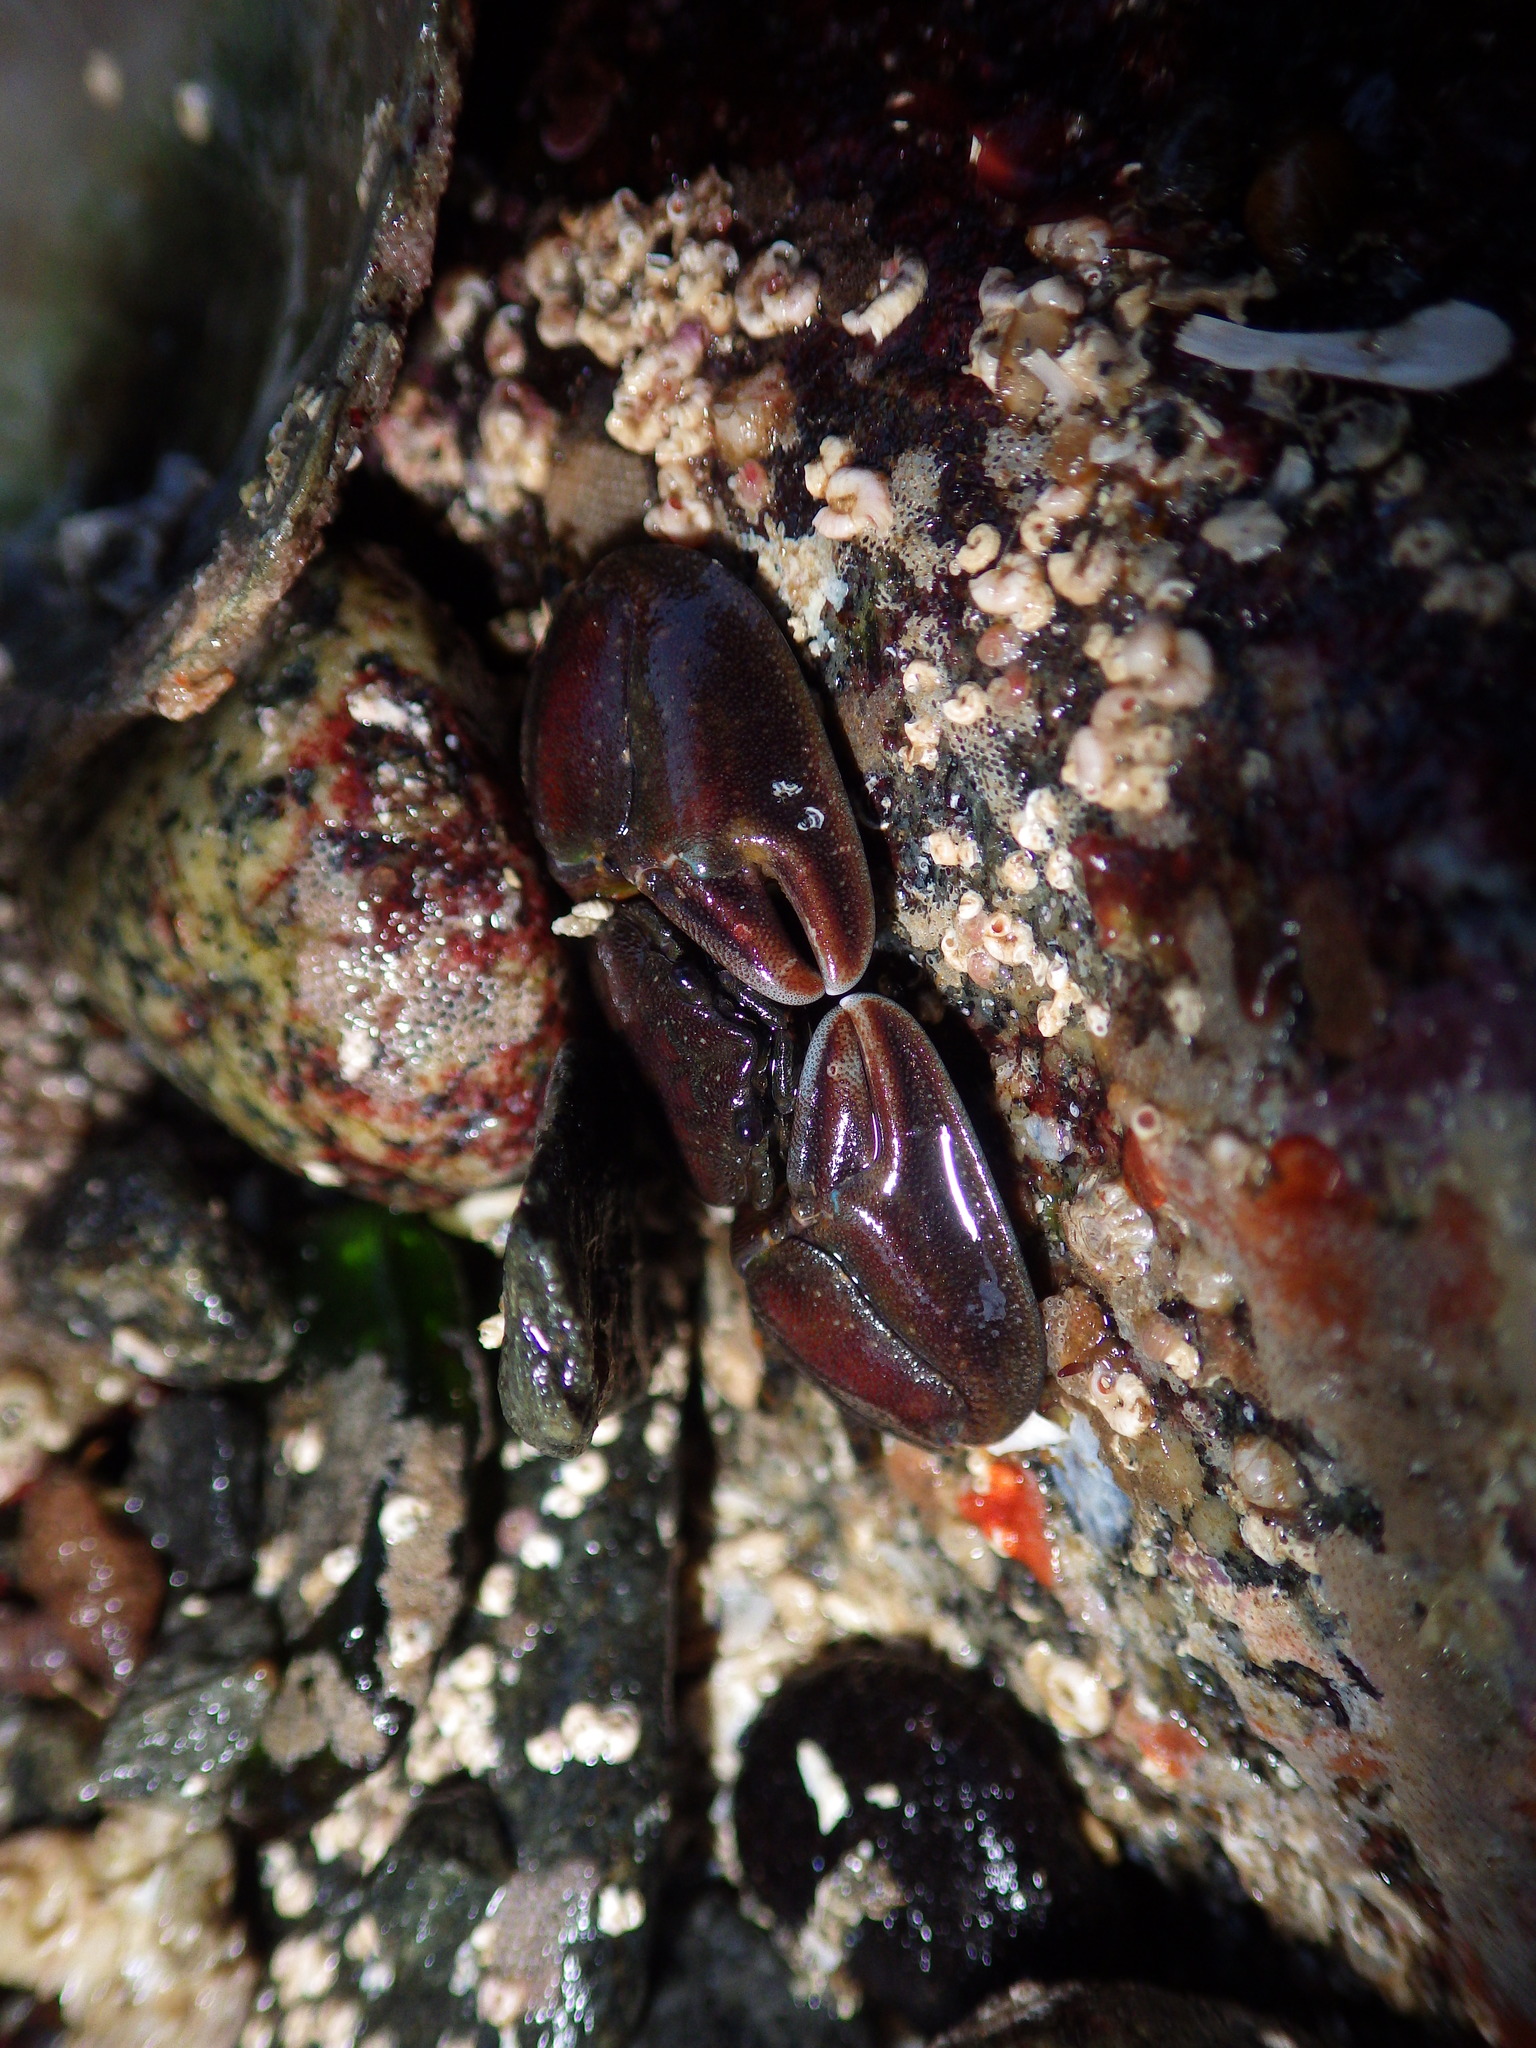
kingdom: Animalia
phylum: Arthropoda
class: Malacostraca
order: Decapoda
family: Porcellanidae
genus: Petrolisthes
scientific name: Petrolisthes cinctipes
